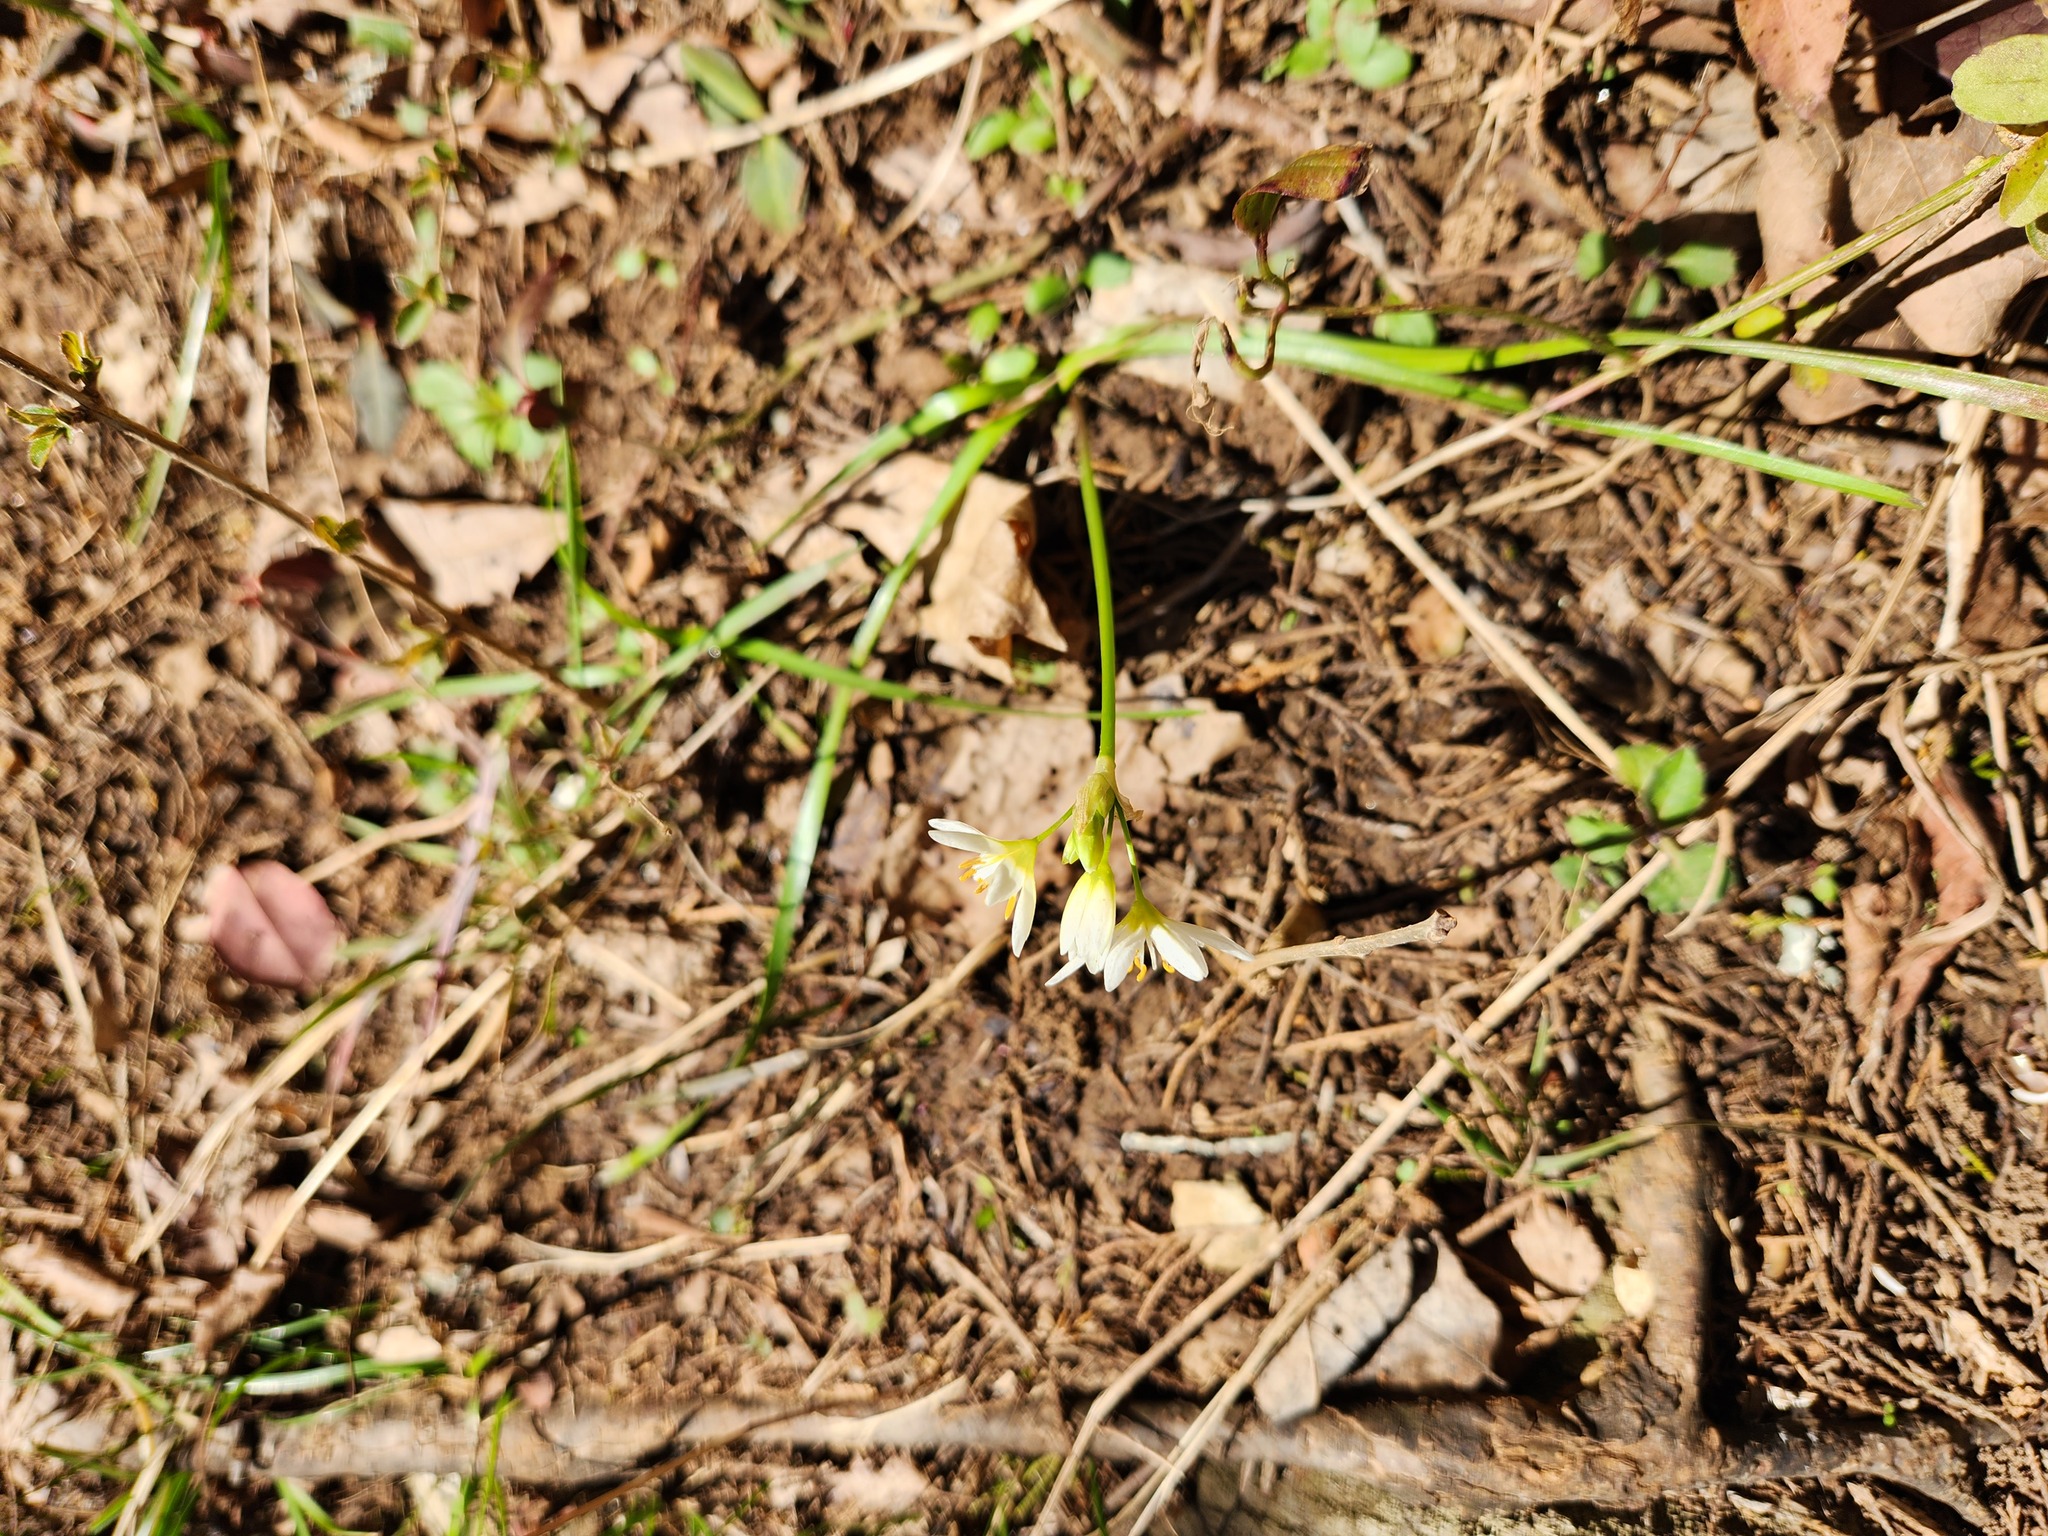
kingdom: Plantae
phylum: Tracheophyta
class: Liliopsida
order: Asparagales
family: Amaryllidaceae
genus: Nothoscordum
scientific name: Nothoscordum bivalve
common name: Crow-poison
